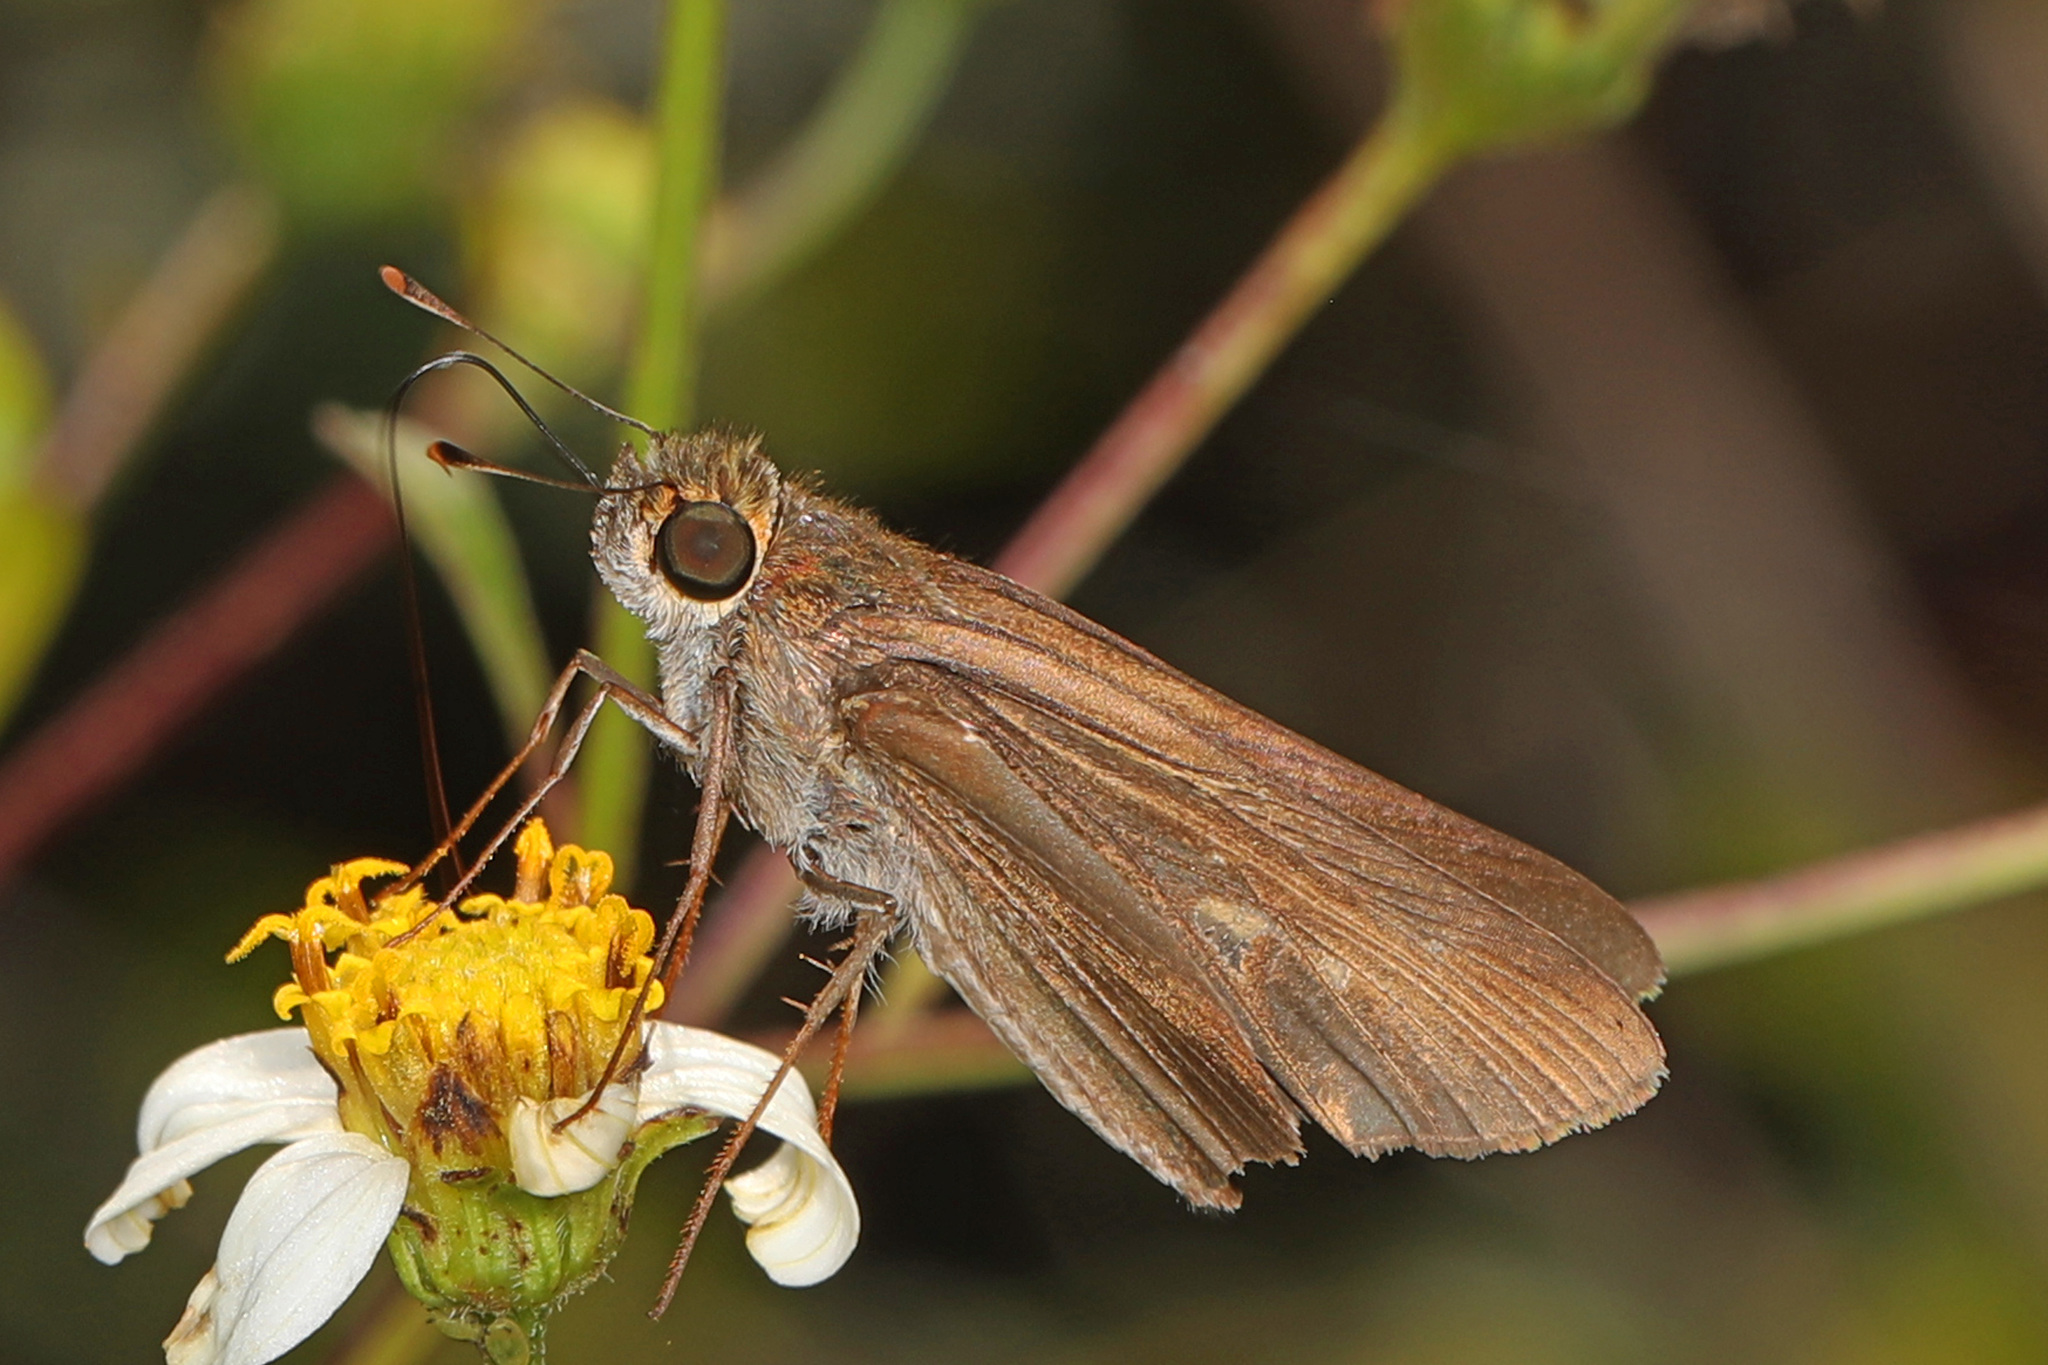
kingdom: Animalia
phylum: Arthropoda
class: Insecta
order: Lepidoptera
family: Hesperiidae
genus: Panoquina
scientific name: Panoquina ocola
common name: Ocola skipper
